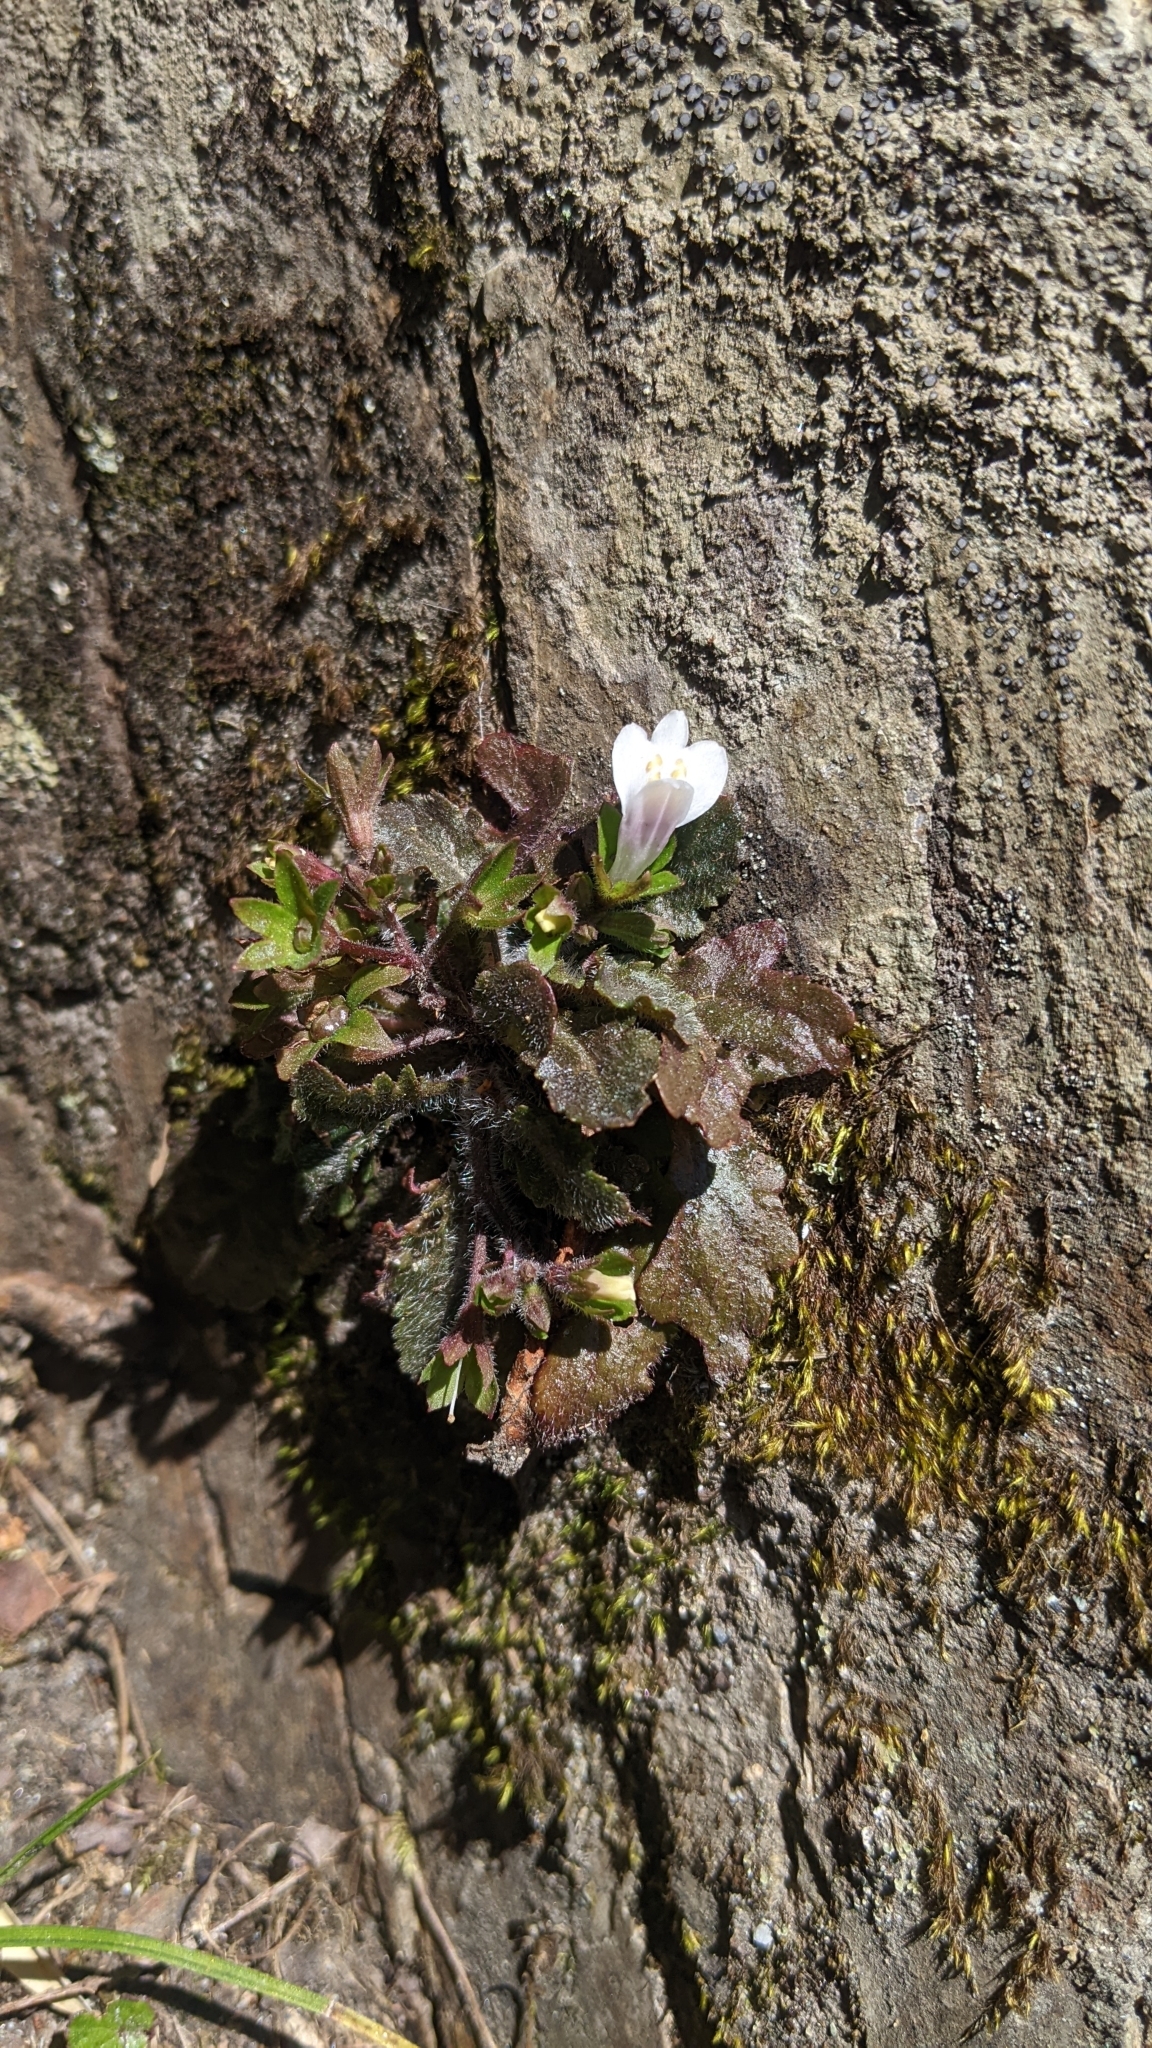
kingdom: Plantae
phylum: Tracheophyta
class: Magnoliopsida
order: Lamiales
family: Mazaceae
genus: Mazus
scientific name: Mazus goodeniifolius
